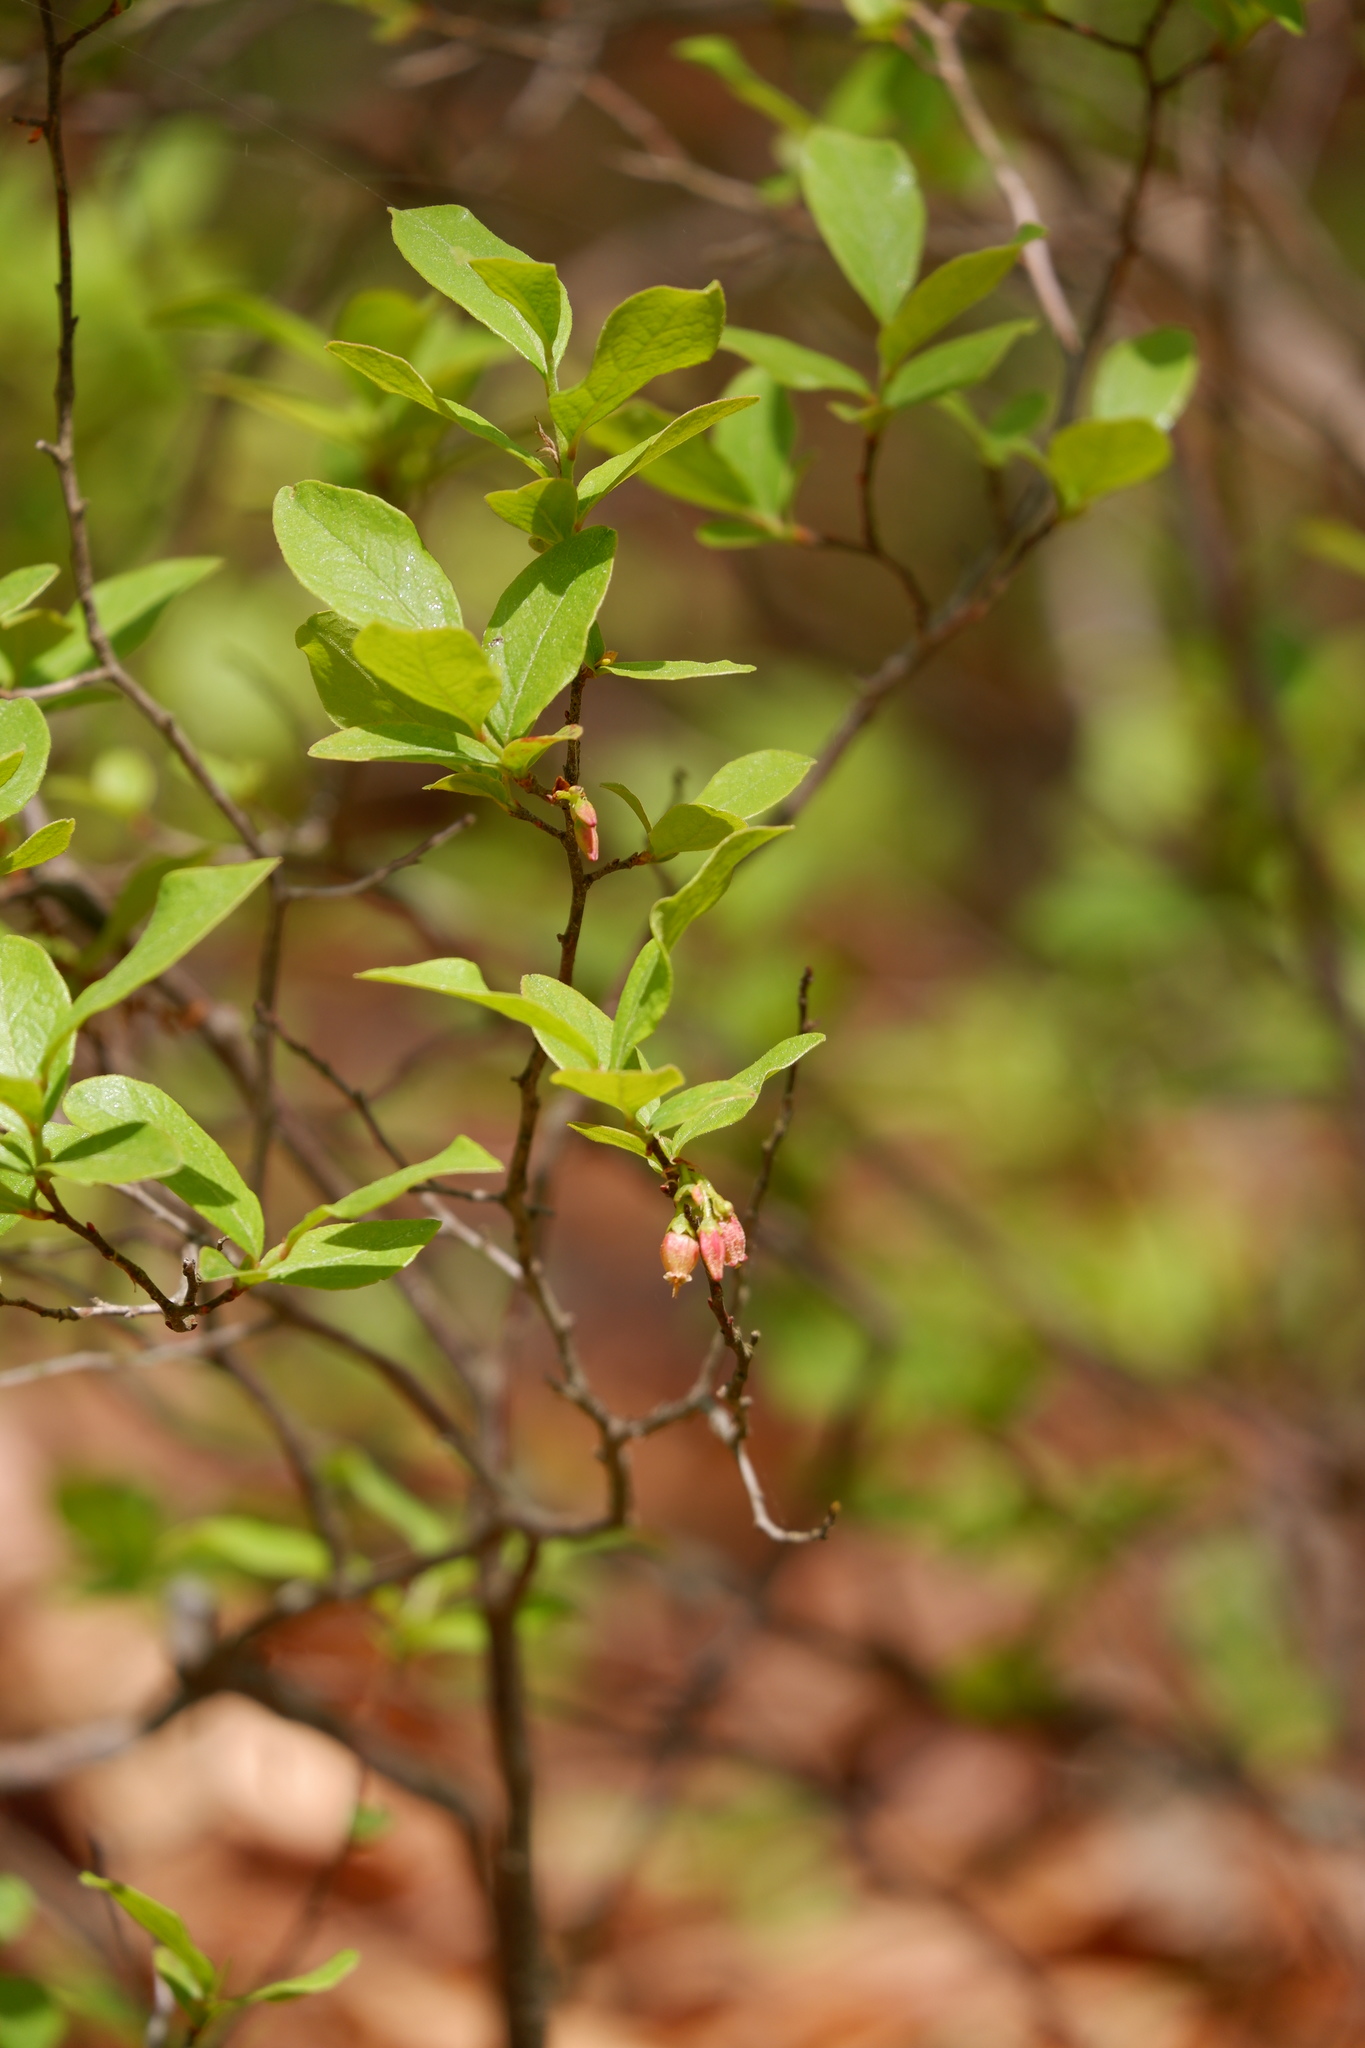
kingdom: Plantae
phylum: Tracheophyta
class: Magnoliopsida
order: Ericales
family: Ericaceae
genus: Gaylussacia
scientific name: Gaylussacia baccata
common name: Black huckleberry
